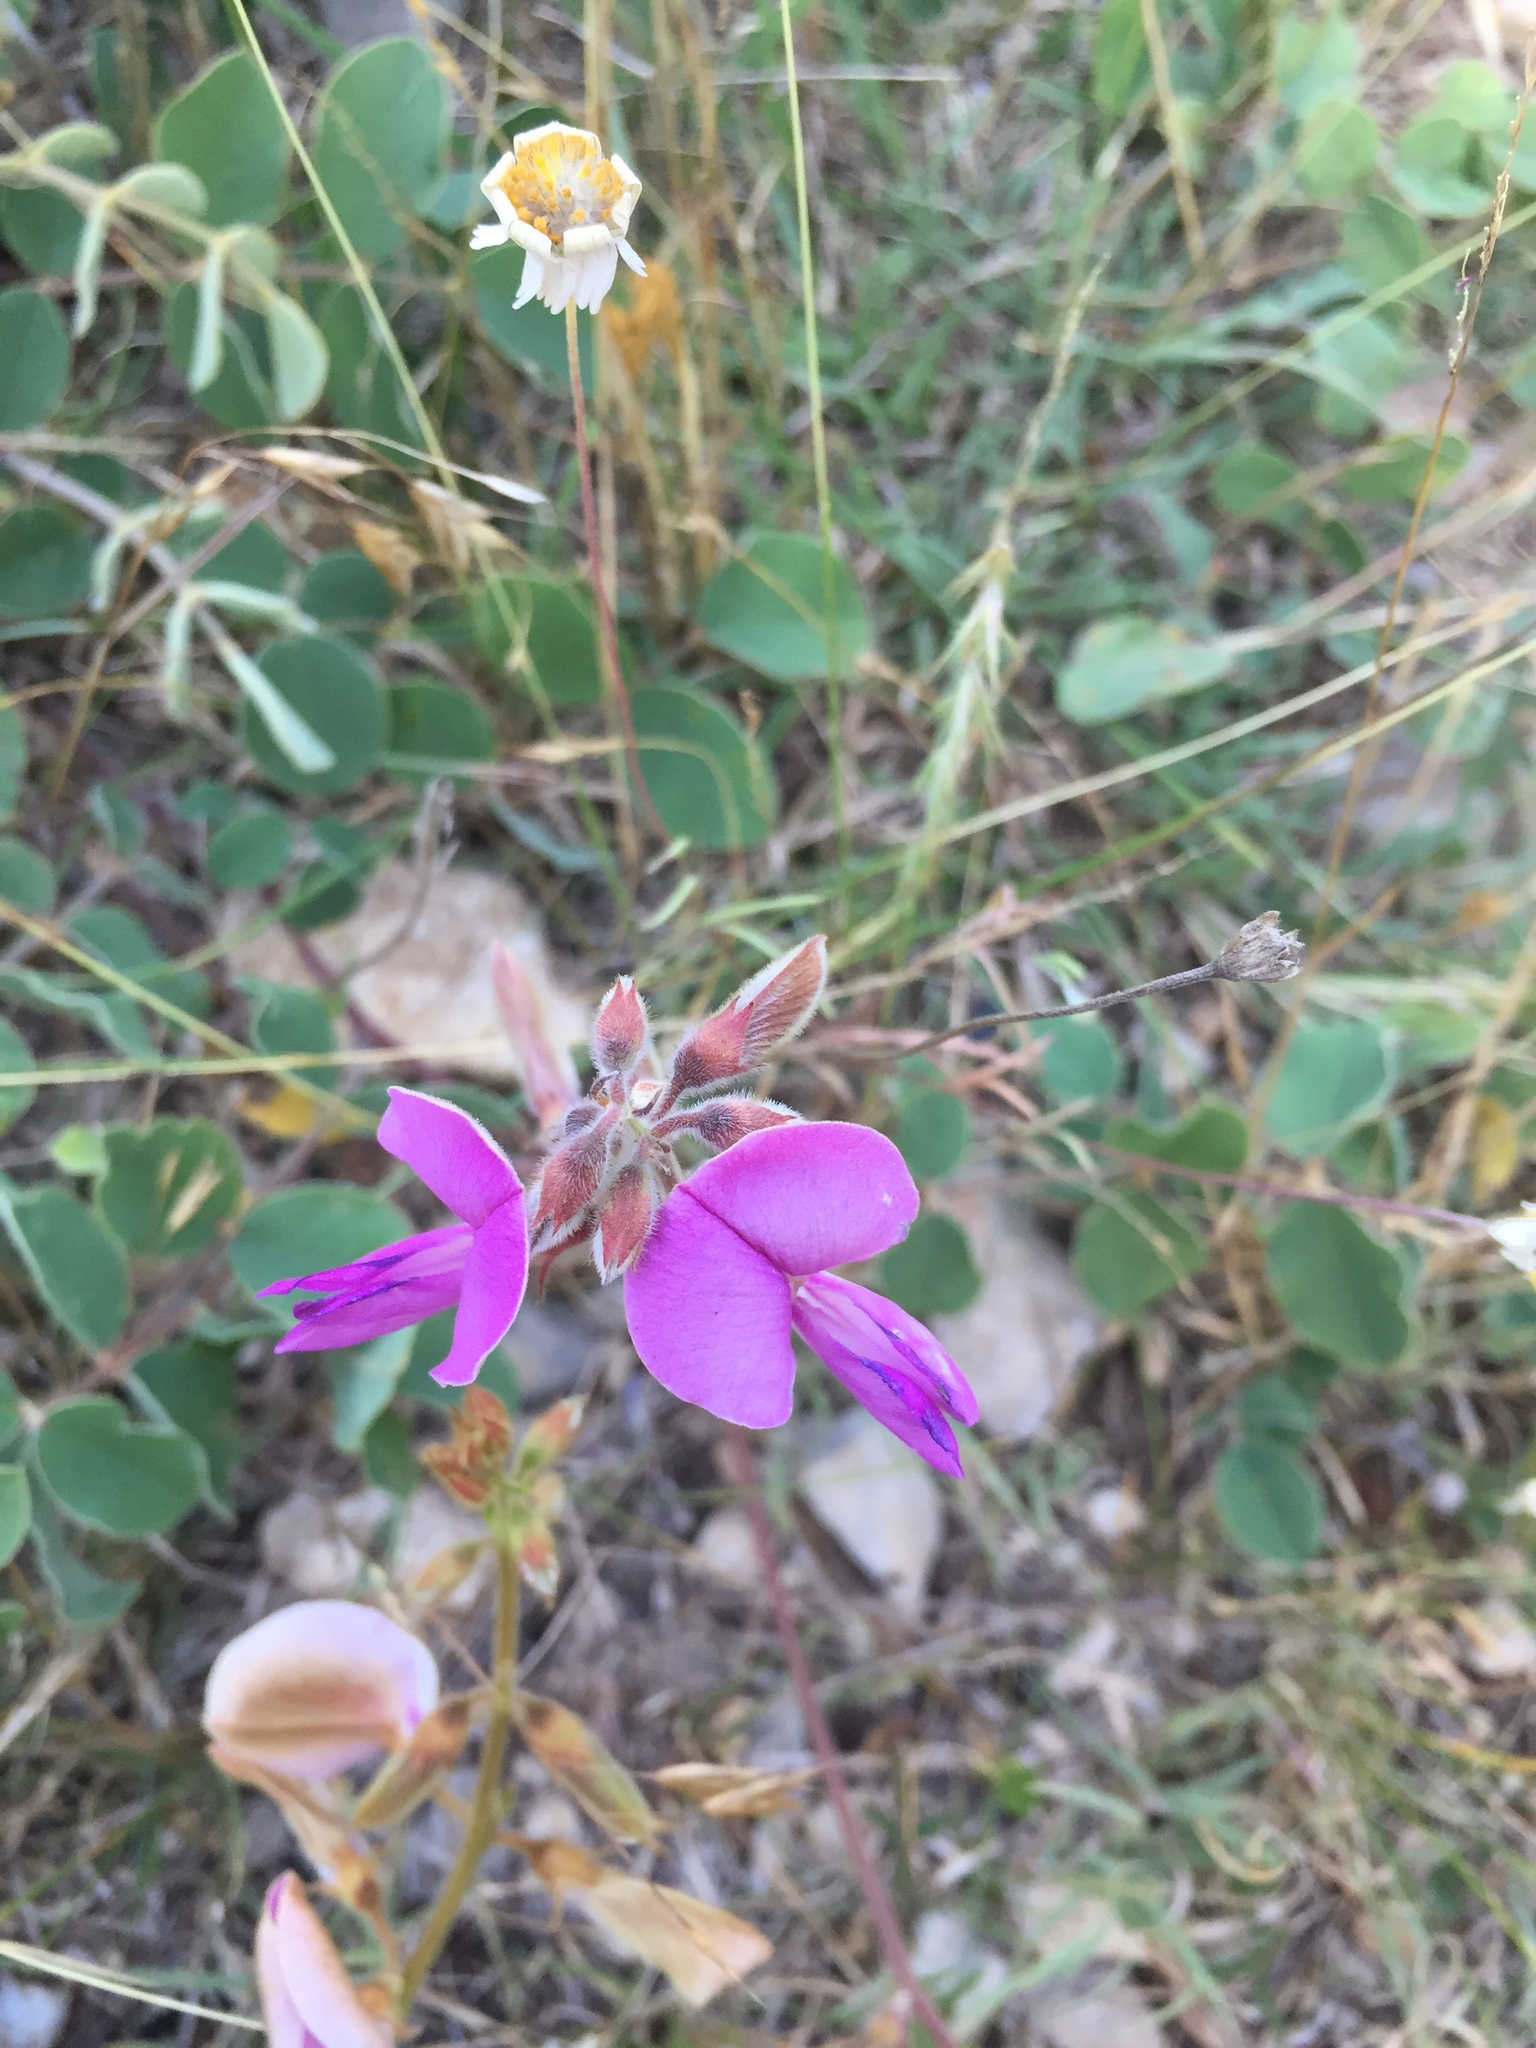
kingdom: Plantae
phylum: Tracheophyta
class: Magnoliopsida
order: Fabales
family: Fabaceae
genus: Tephrosia
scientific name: Tephrosia potosina
